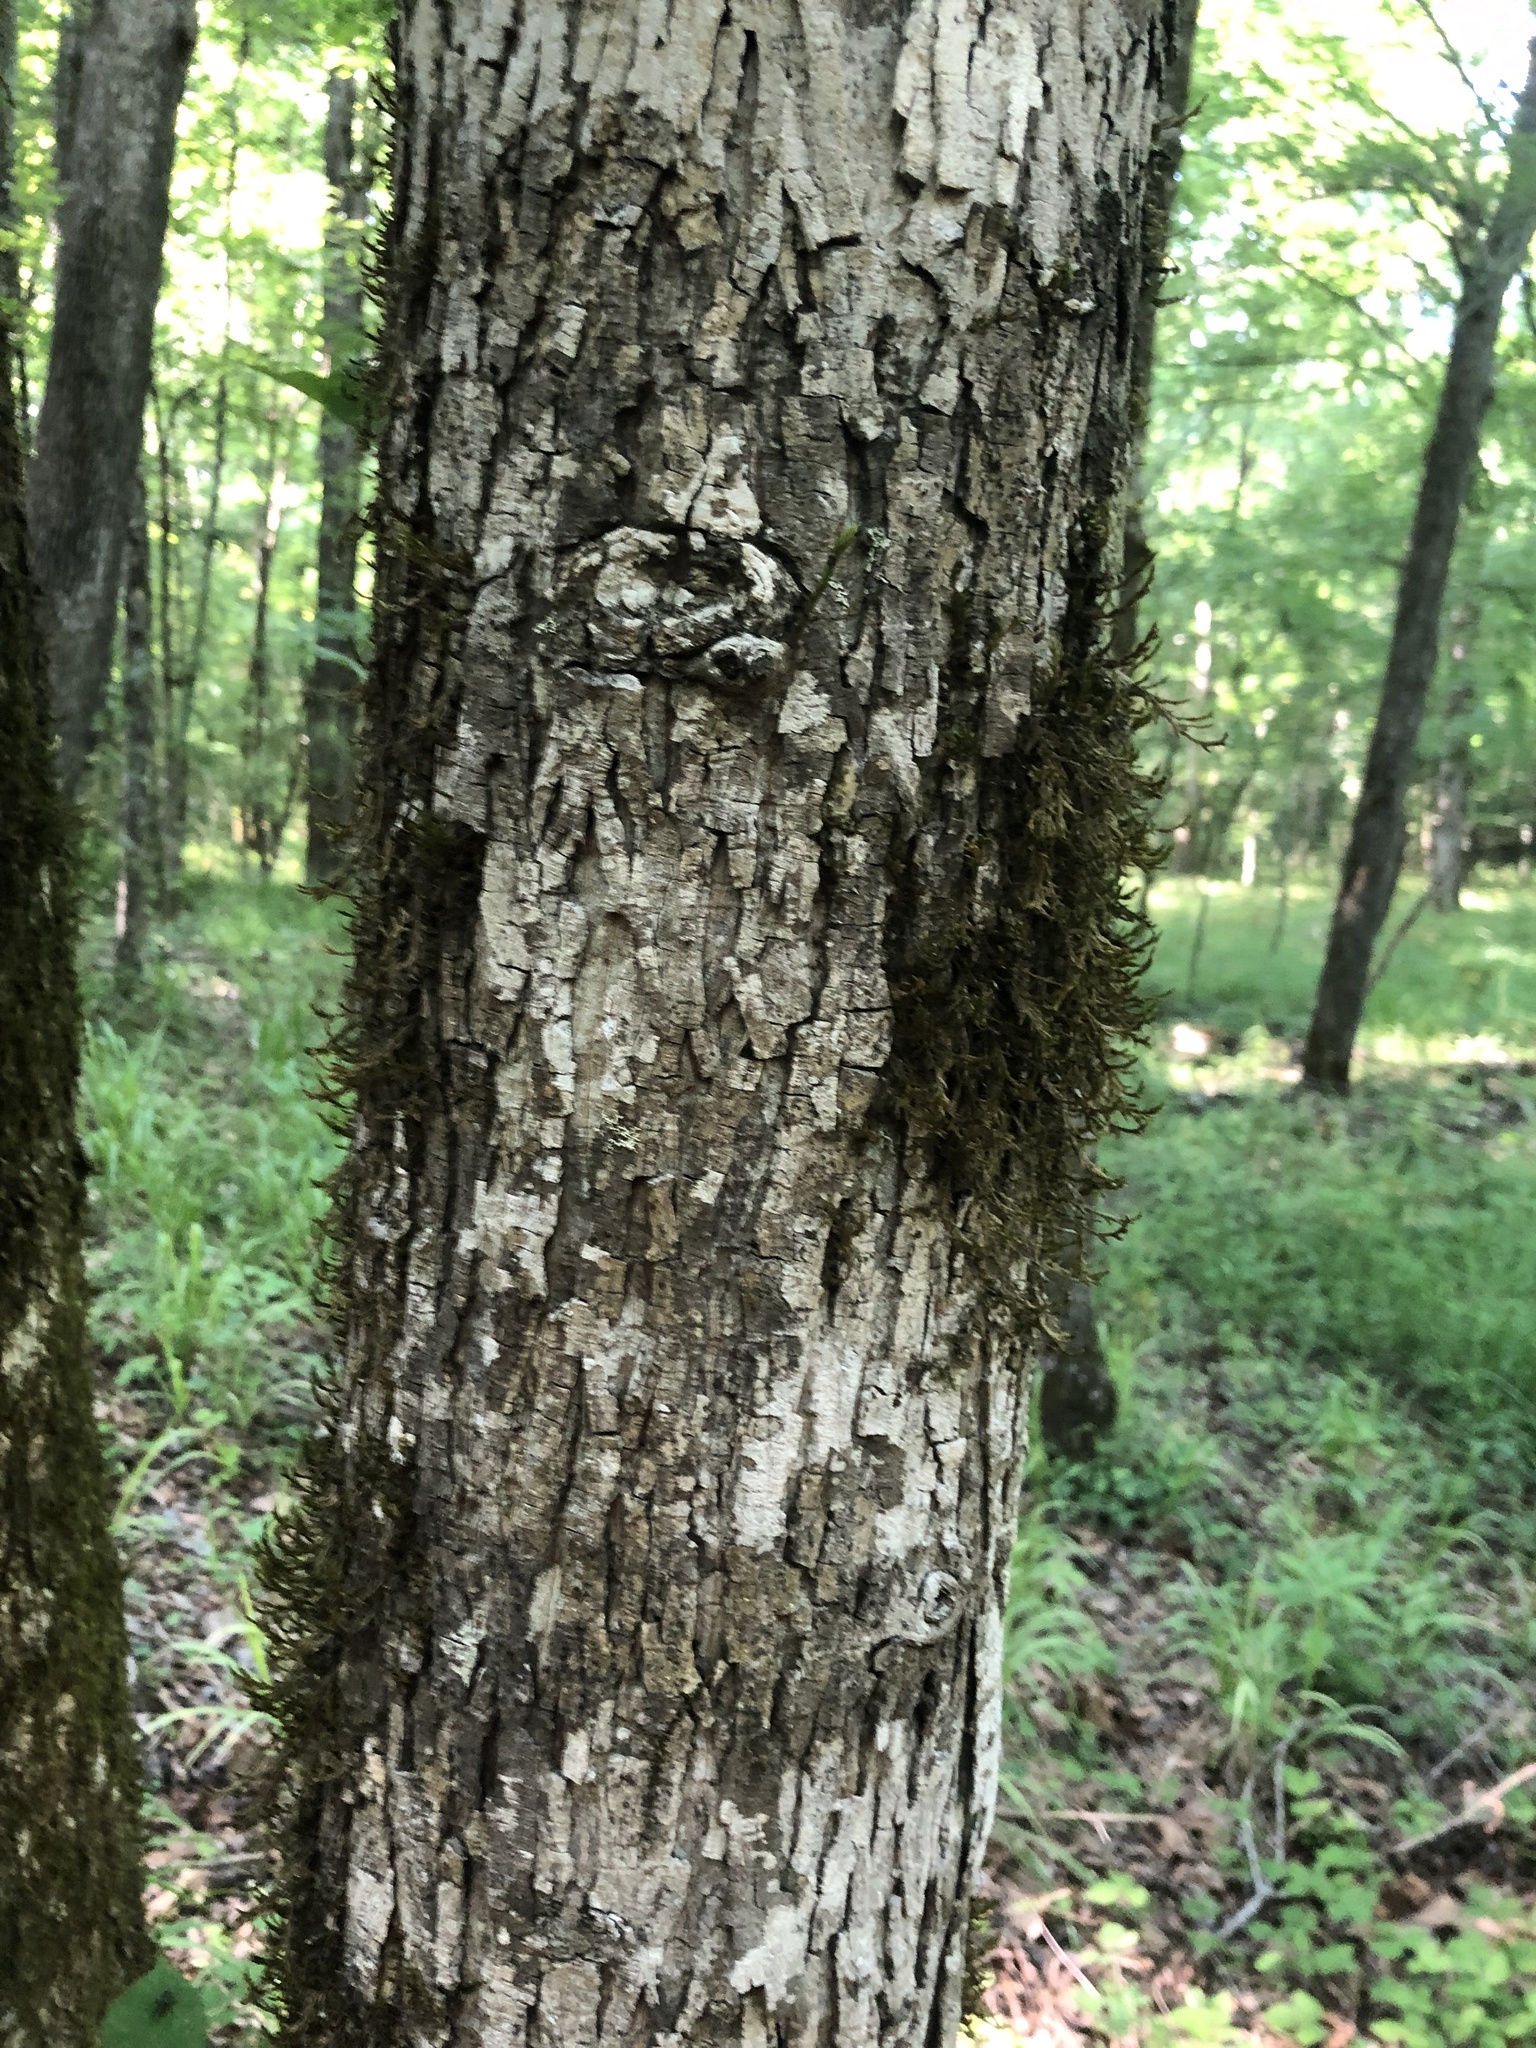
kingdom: Plantae
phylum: Tracheophyta
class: Magnoliopsida
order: Fagales
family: Juglandaceae
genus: Carya
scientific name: Carya carolinae-septentrionalis
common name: Carolina hickory
